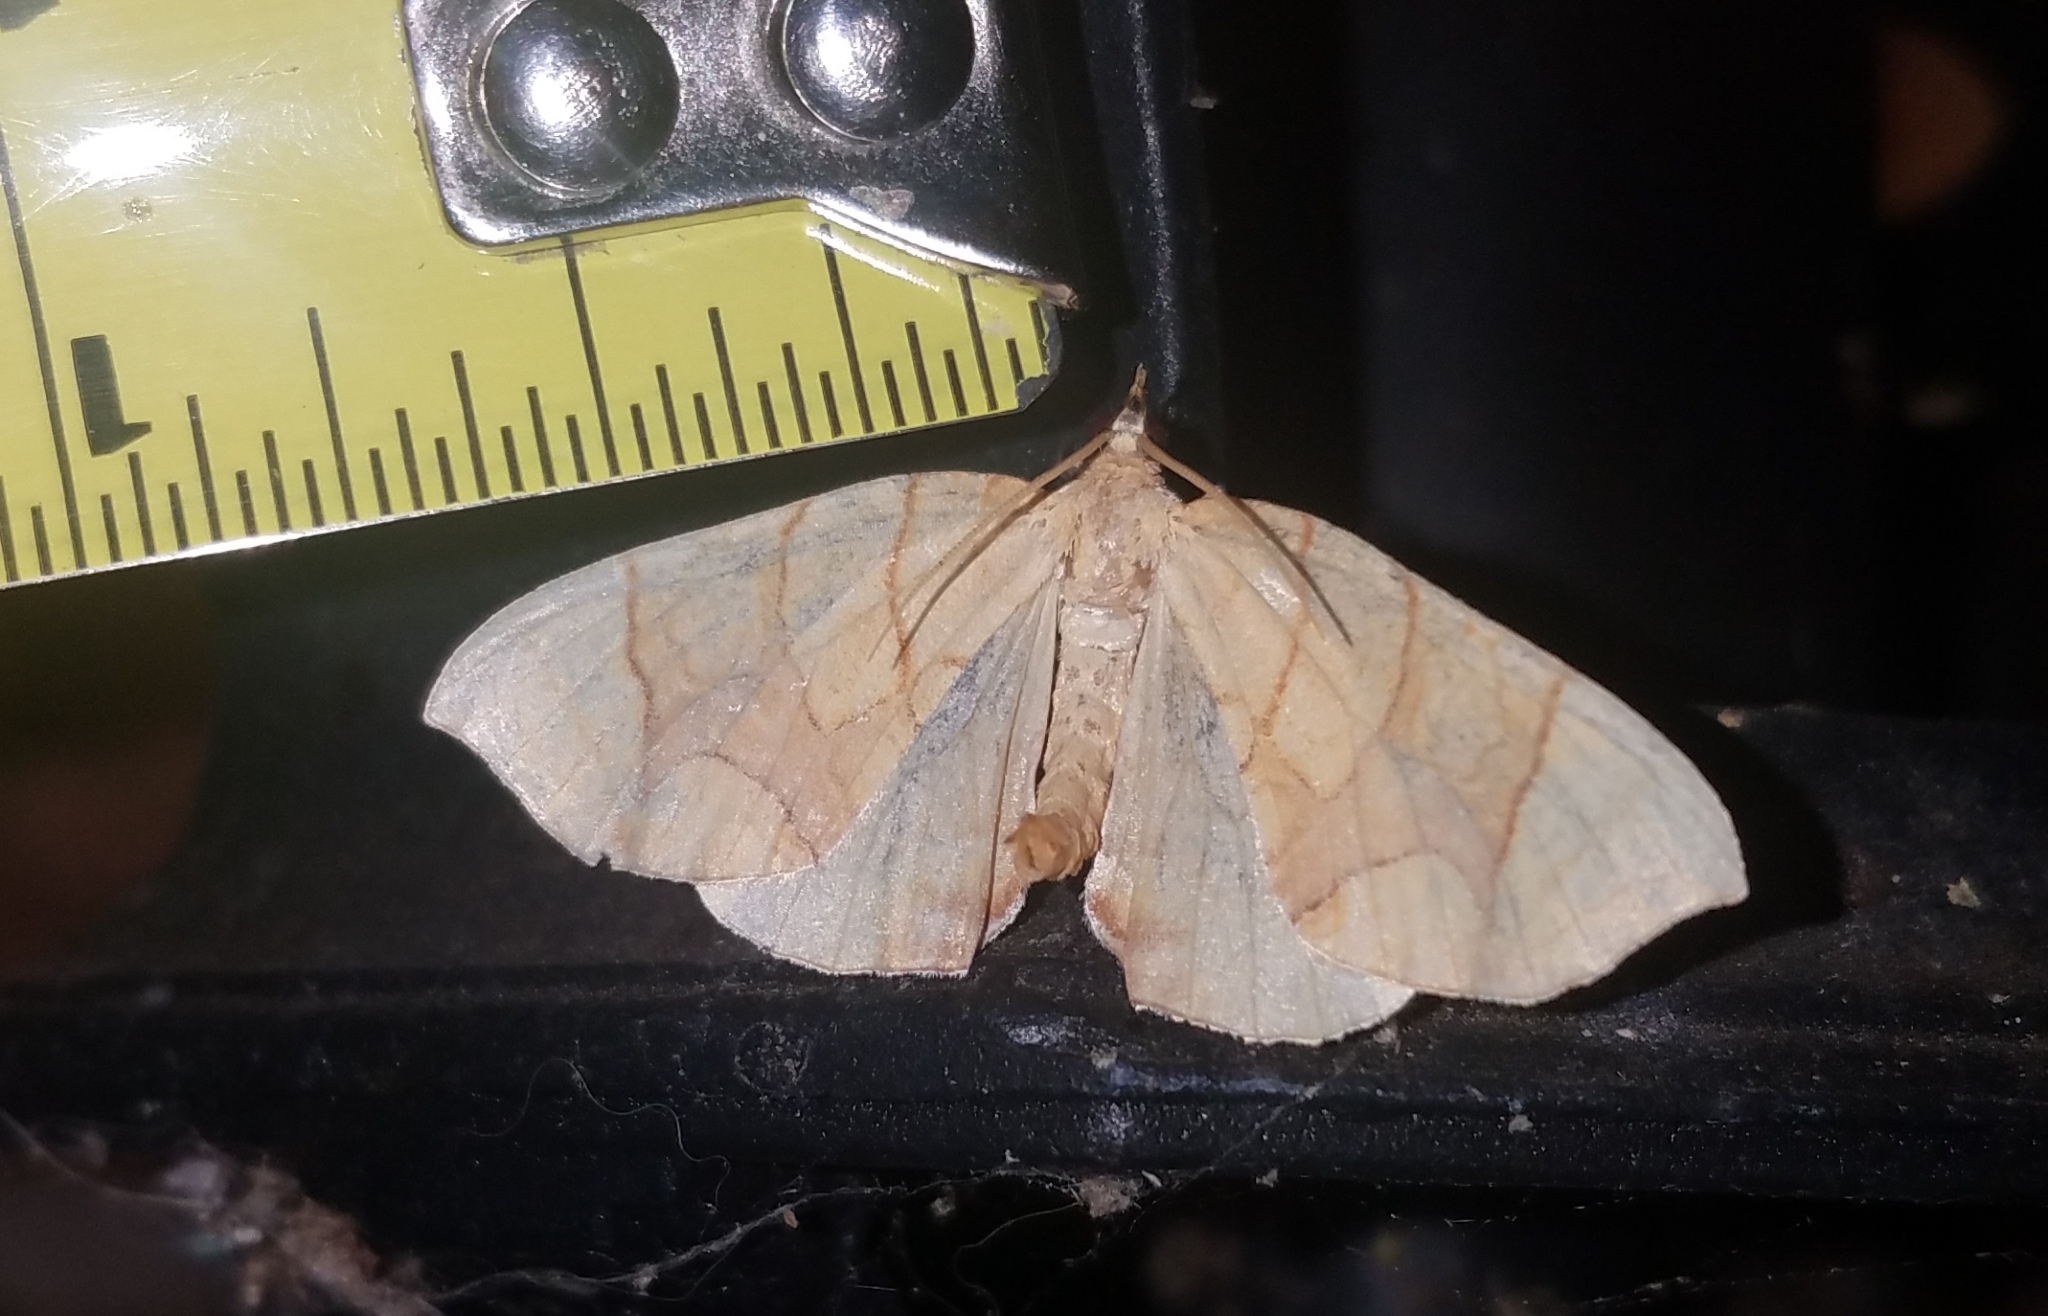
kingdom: Animalia
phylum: Arthropoda
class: Insecta
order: Lepidoptera
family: Geometridae
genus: Eulithis
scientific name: Eulithis diversilineata
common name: Grapevine looper
